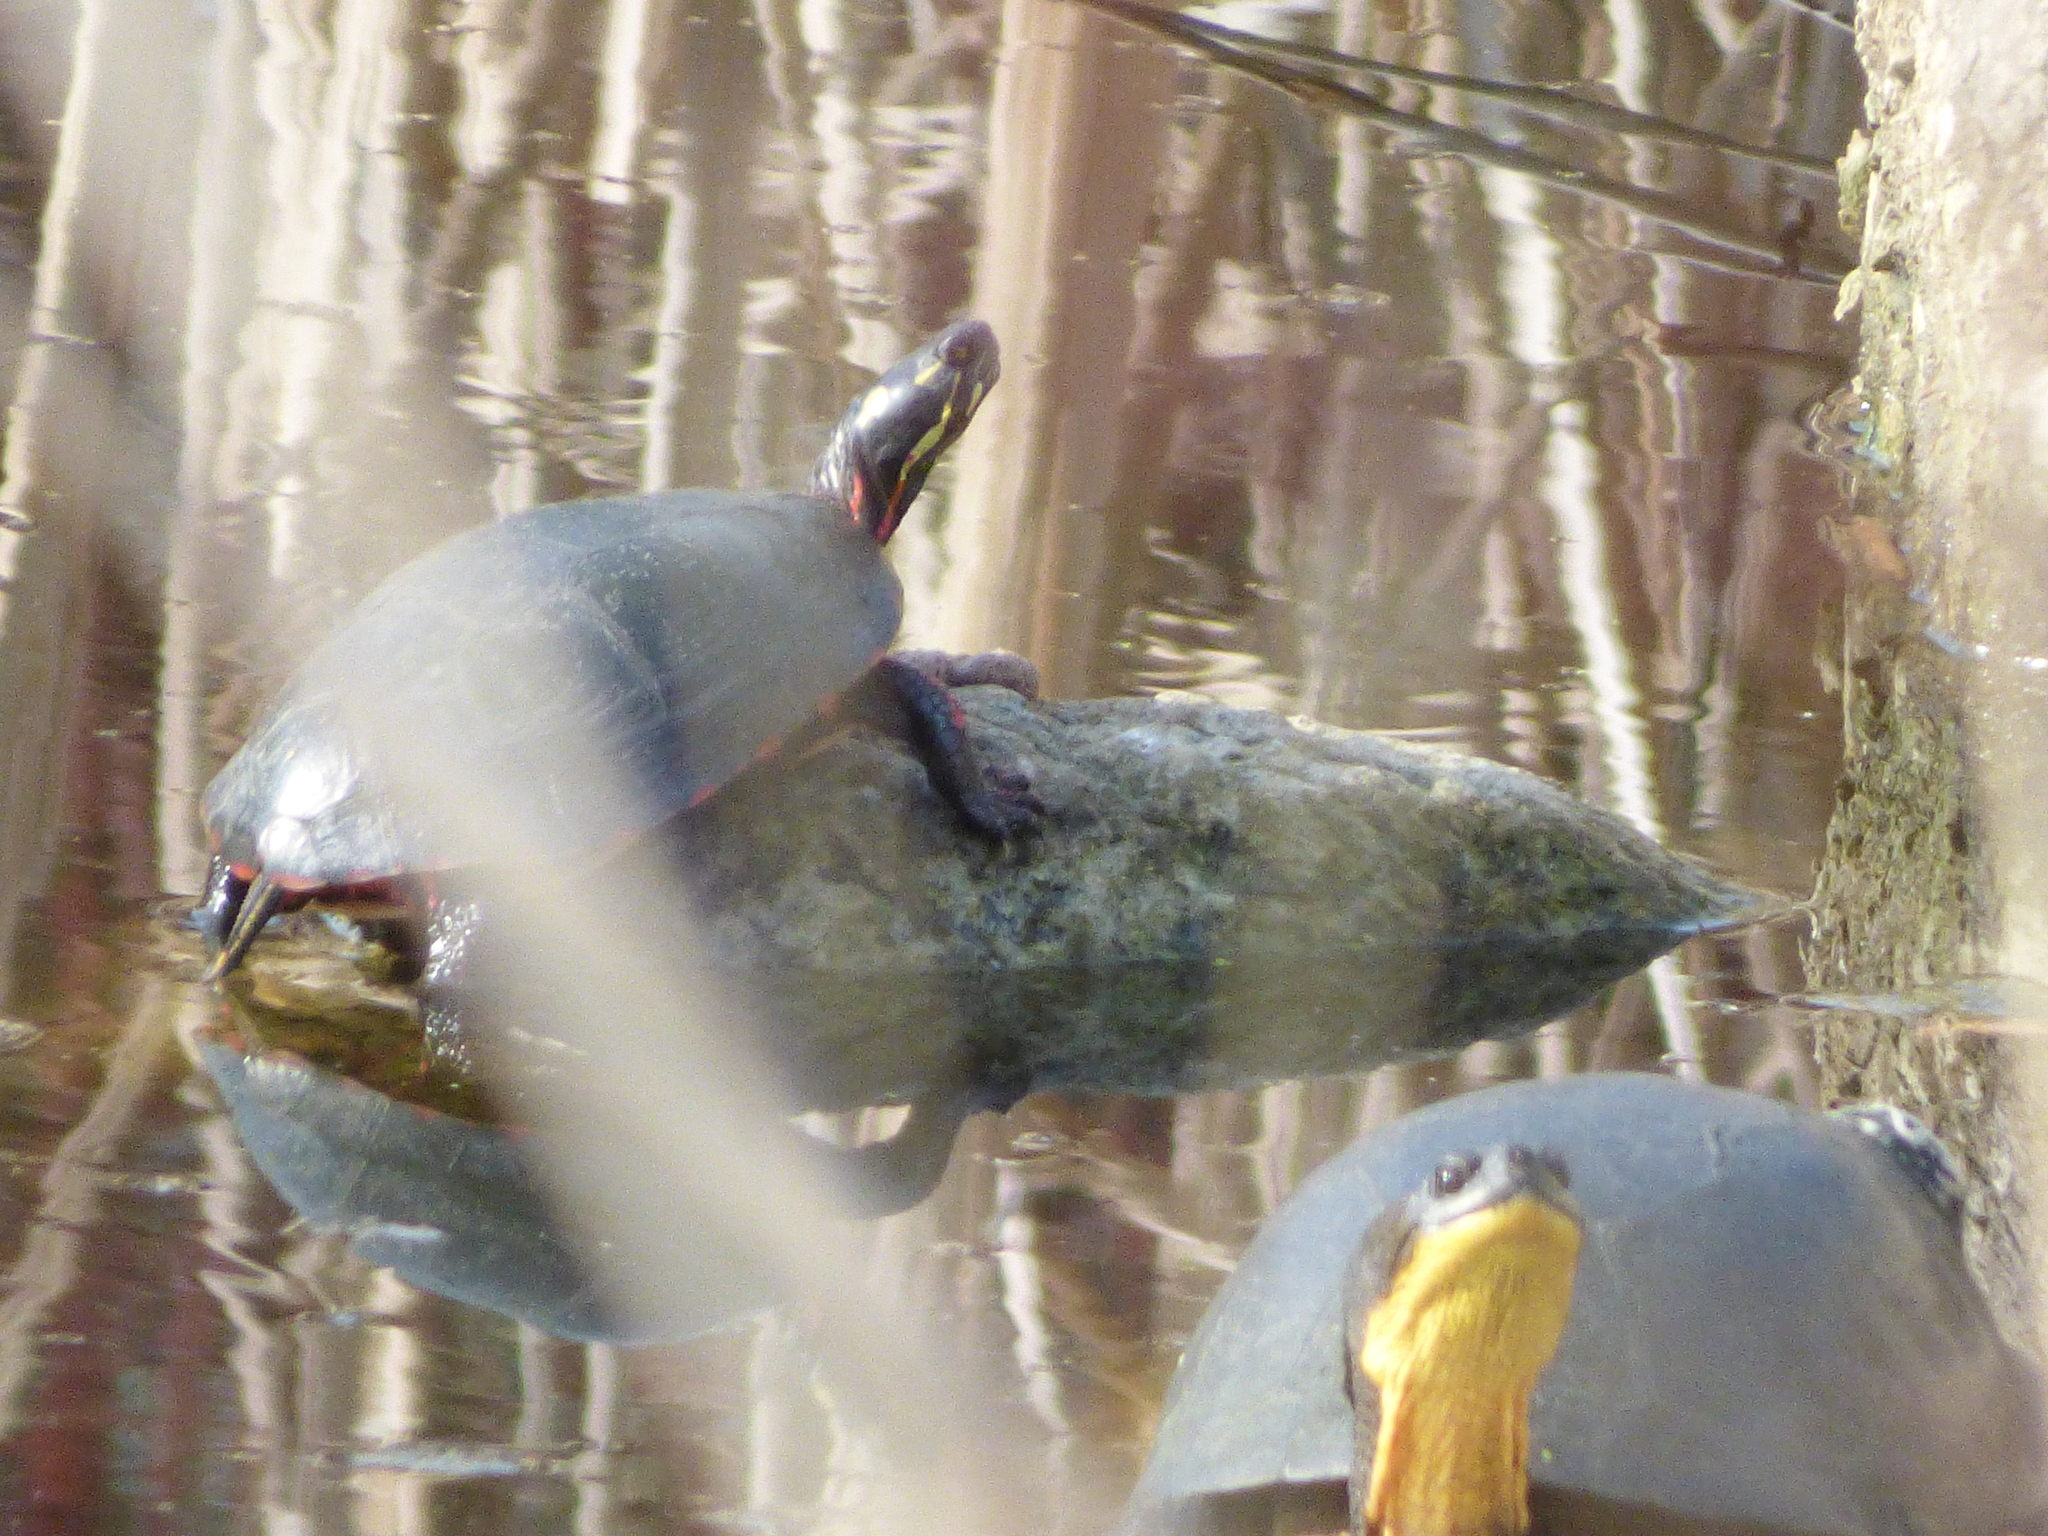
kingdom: Animalia
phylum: Chordata
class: Testudines
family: Emydidae
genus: Chrysemys
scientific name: Chrysemys picta
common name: Painted turtle
